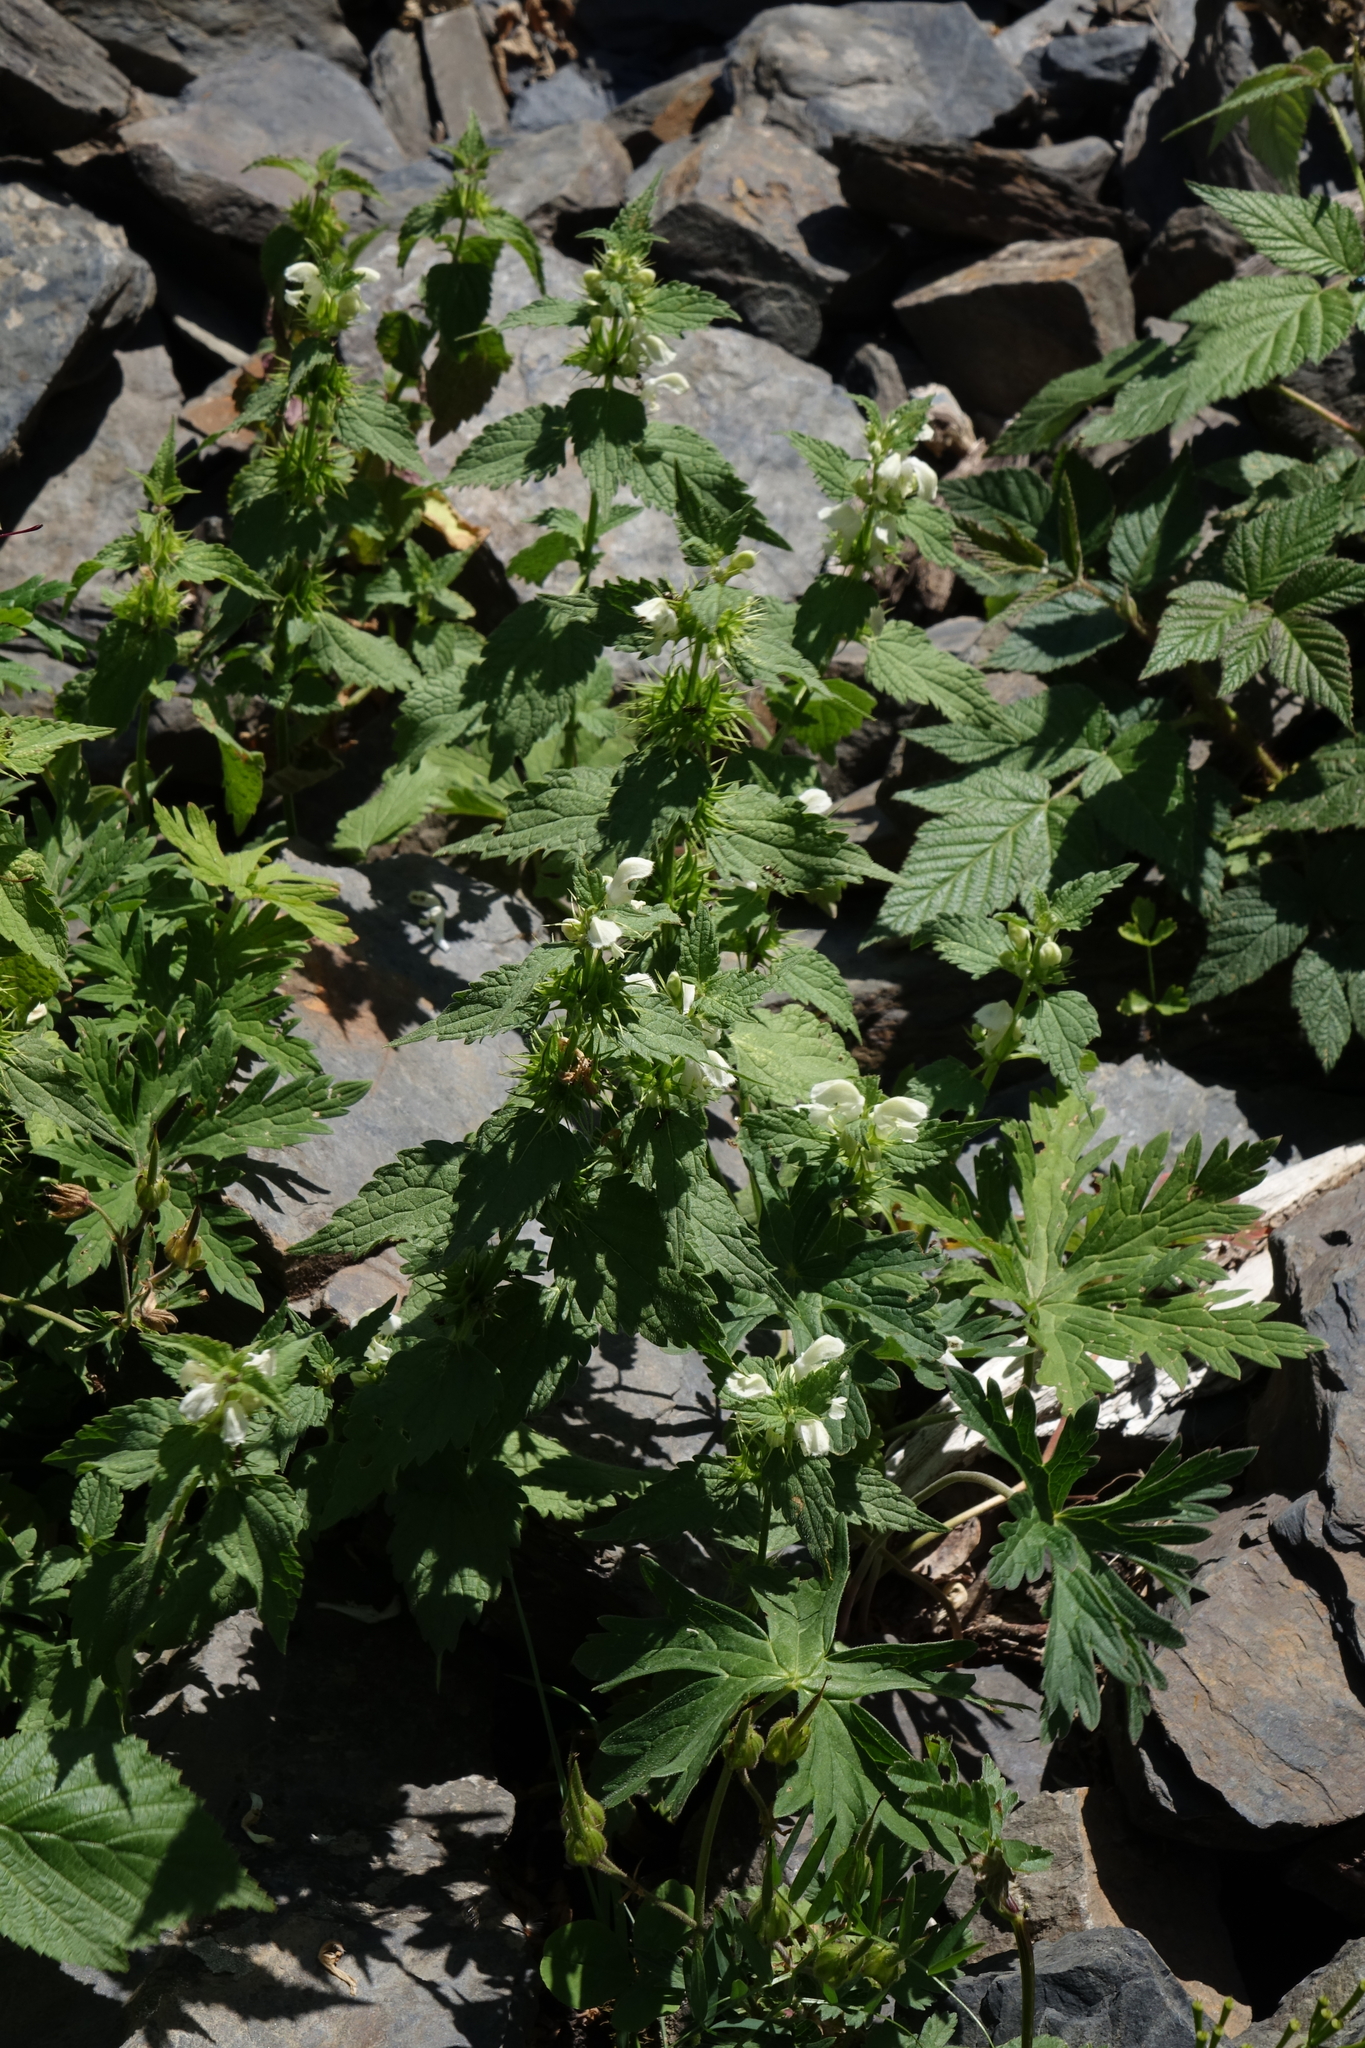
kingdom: Plantae
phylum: Tracheophyta
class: Magnoliopsida
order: Lamiales
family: Lamiaceae
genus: Lamium
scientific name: Lamium album
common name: White dead-nettle
